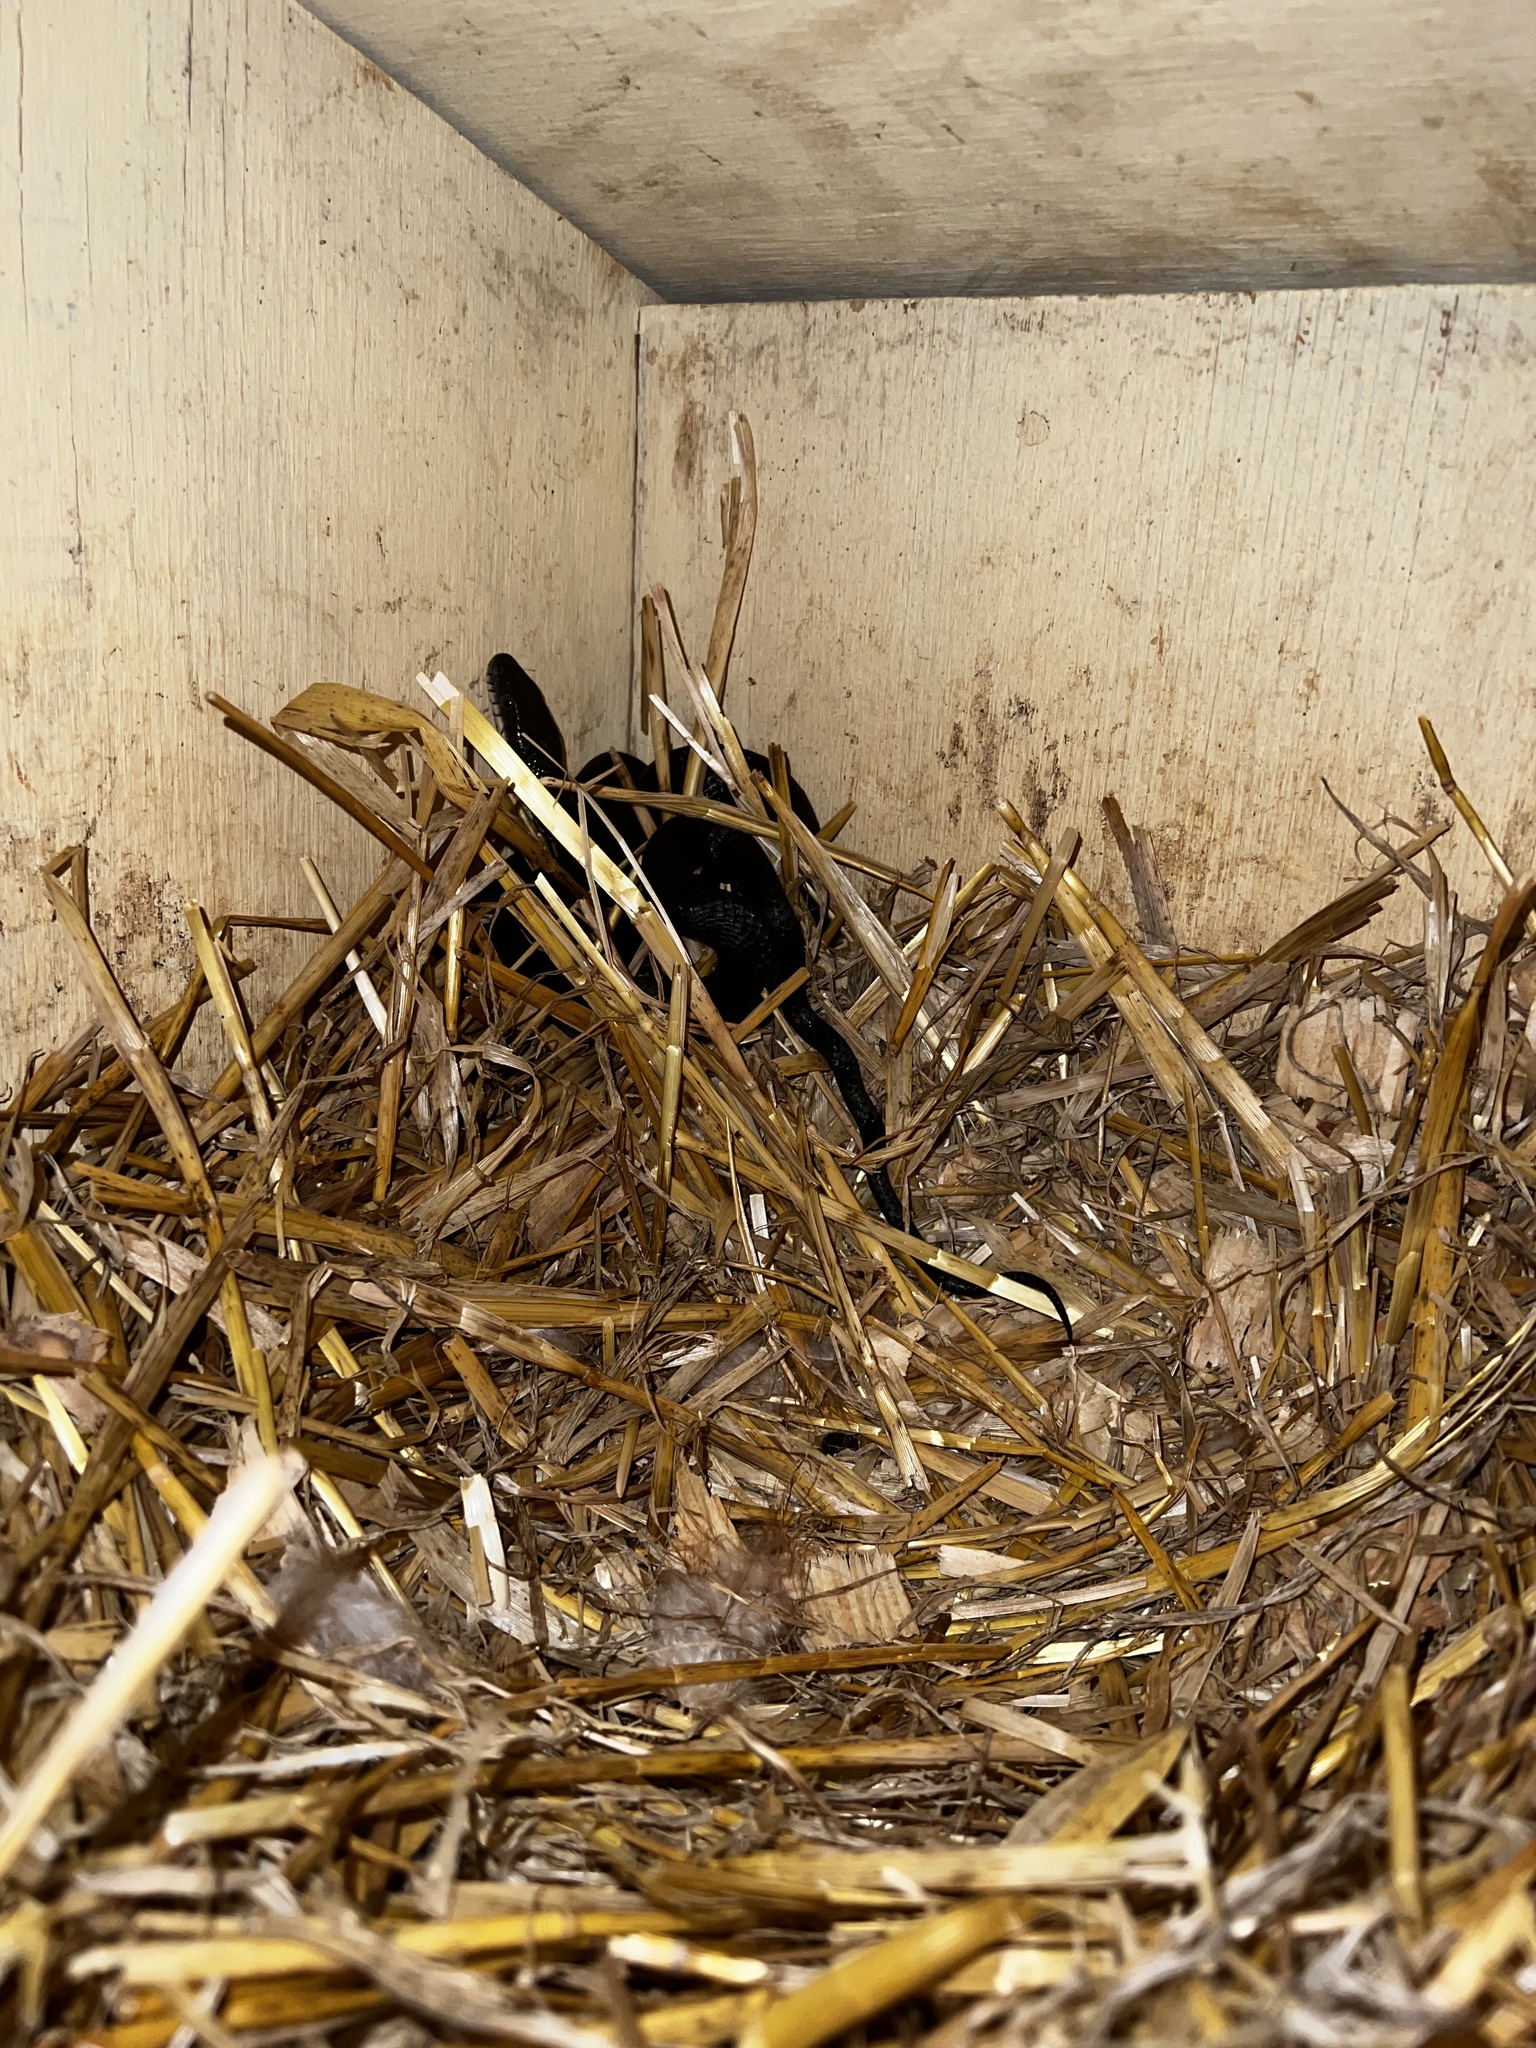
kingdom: Animalia
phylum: Chordata
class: Squamata
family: Colubridae
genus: Pantherophis
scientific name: Pantherophis
